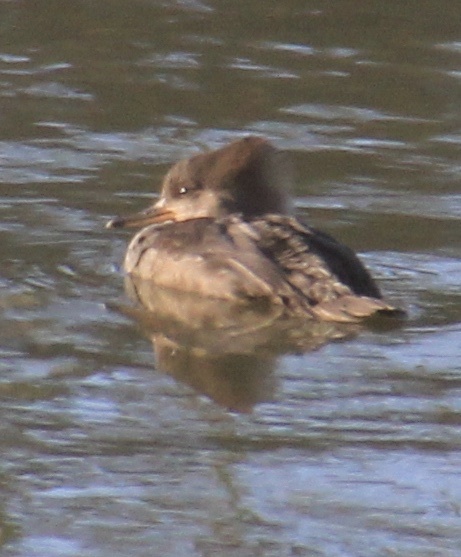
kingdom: Animalia
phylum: Chordata
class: Aves
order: Anseriformes
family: Anatidae
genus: Lophodytes
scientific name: Lophodytes cucullatus
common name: Hooded merganser
